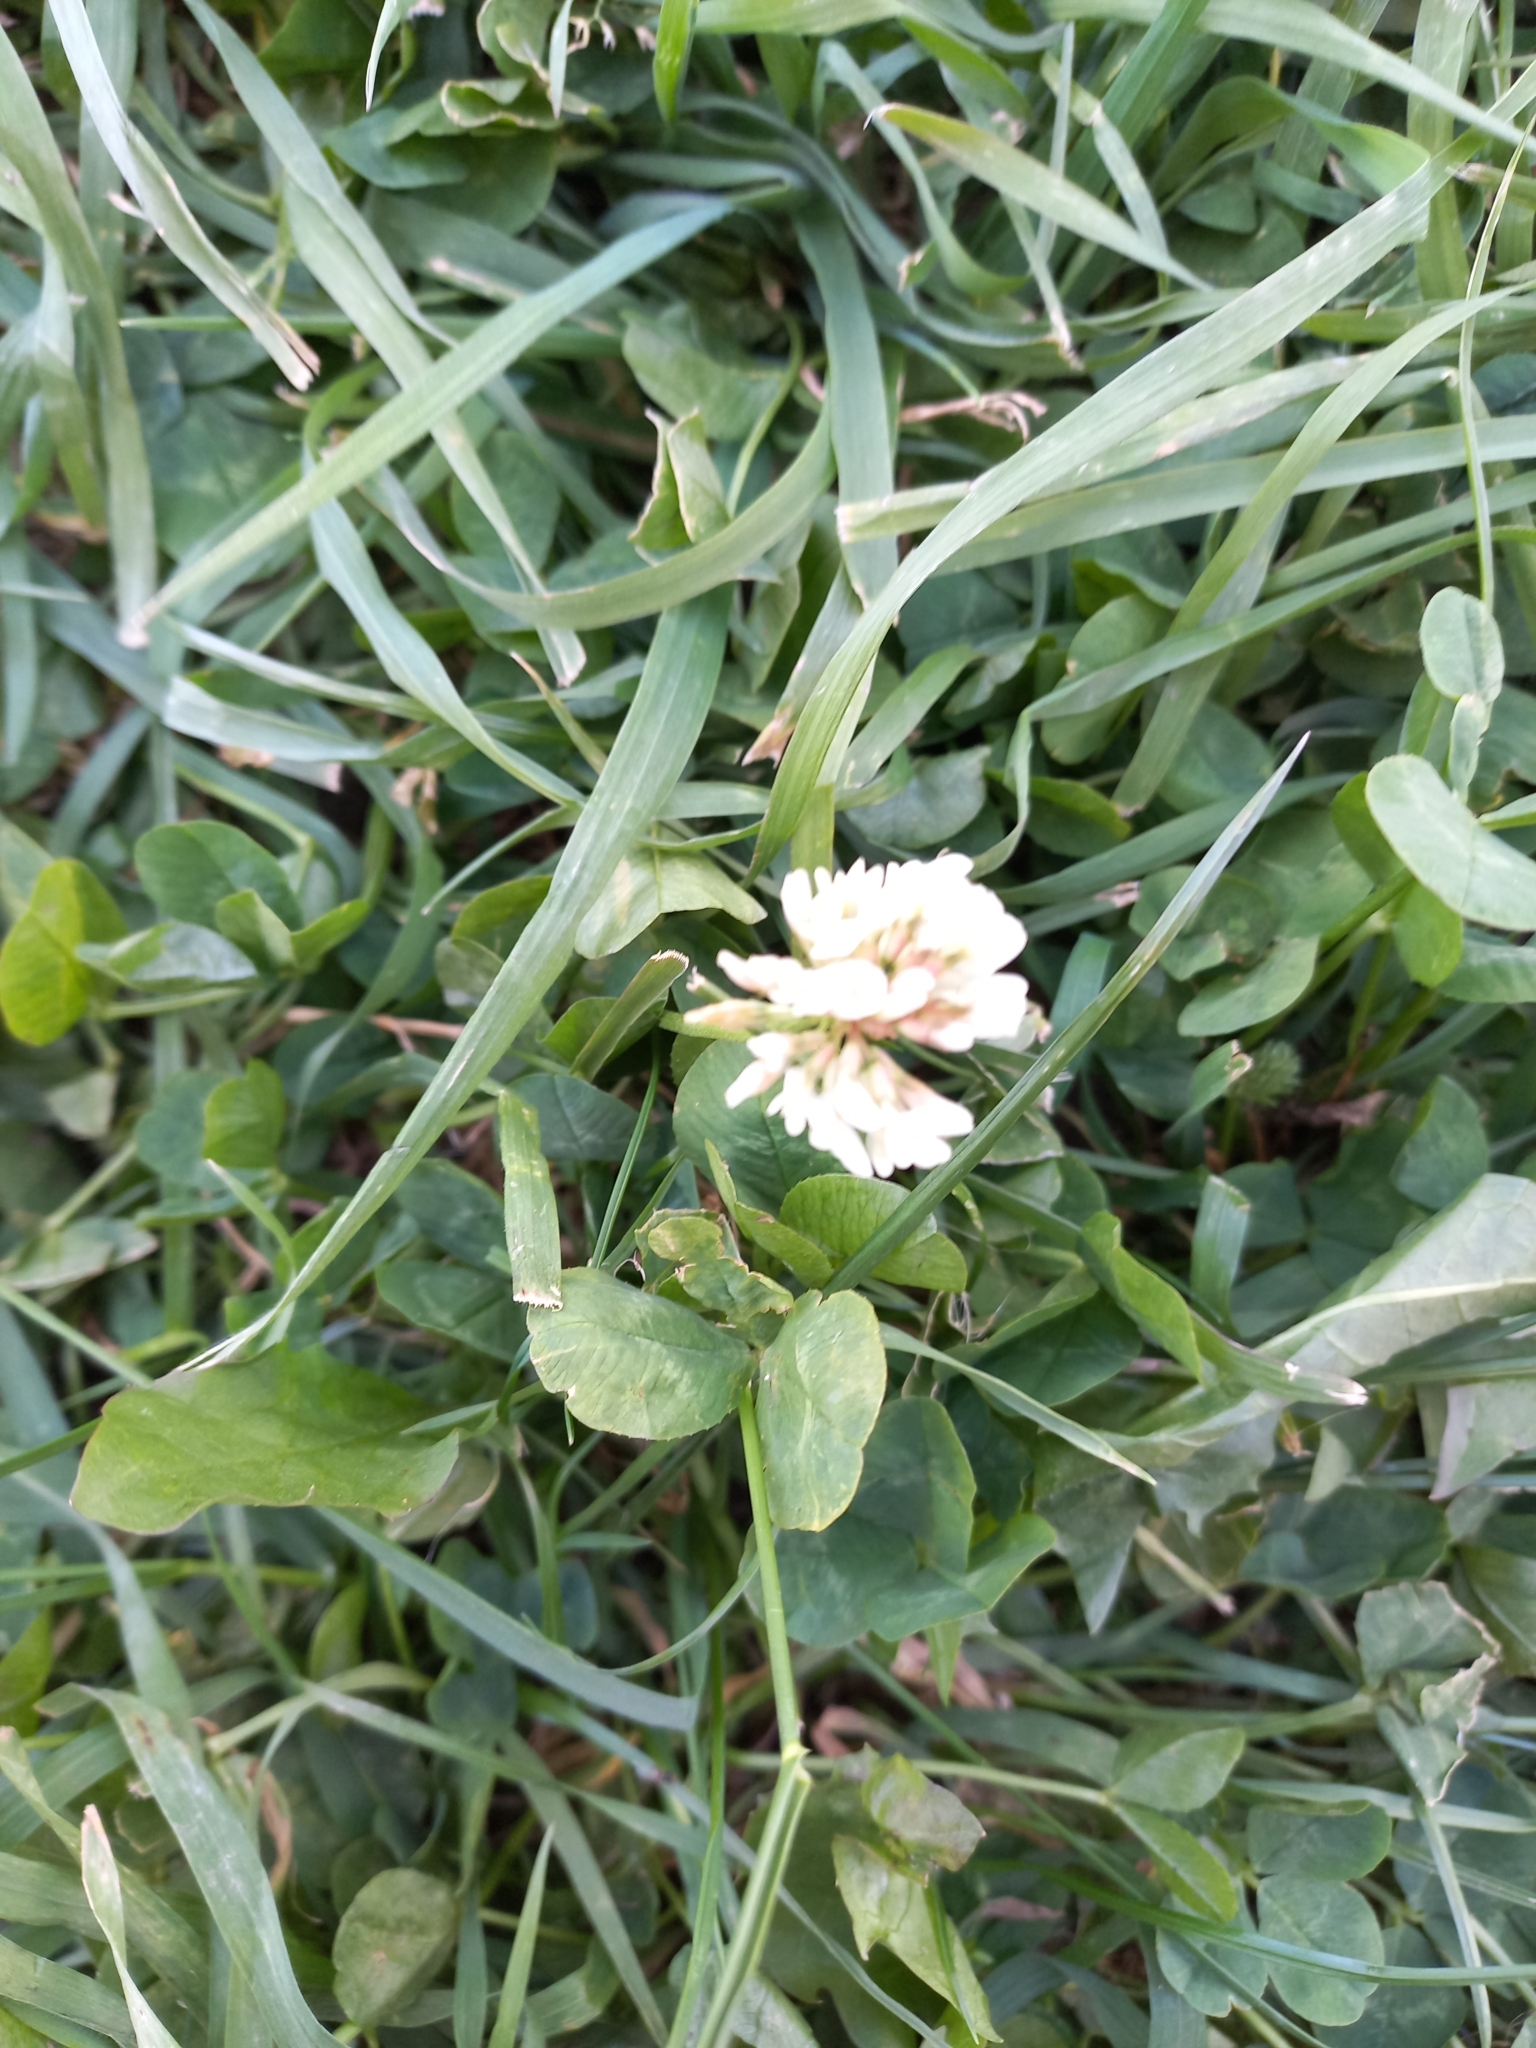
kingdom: Plantae
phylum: Tracheophyta
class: Magnoliopsida
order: Fabales
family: Fabaceae
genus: Trifolium
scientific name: Trifolium repens
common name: White clover
